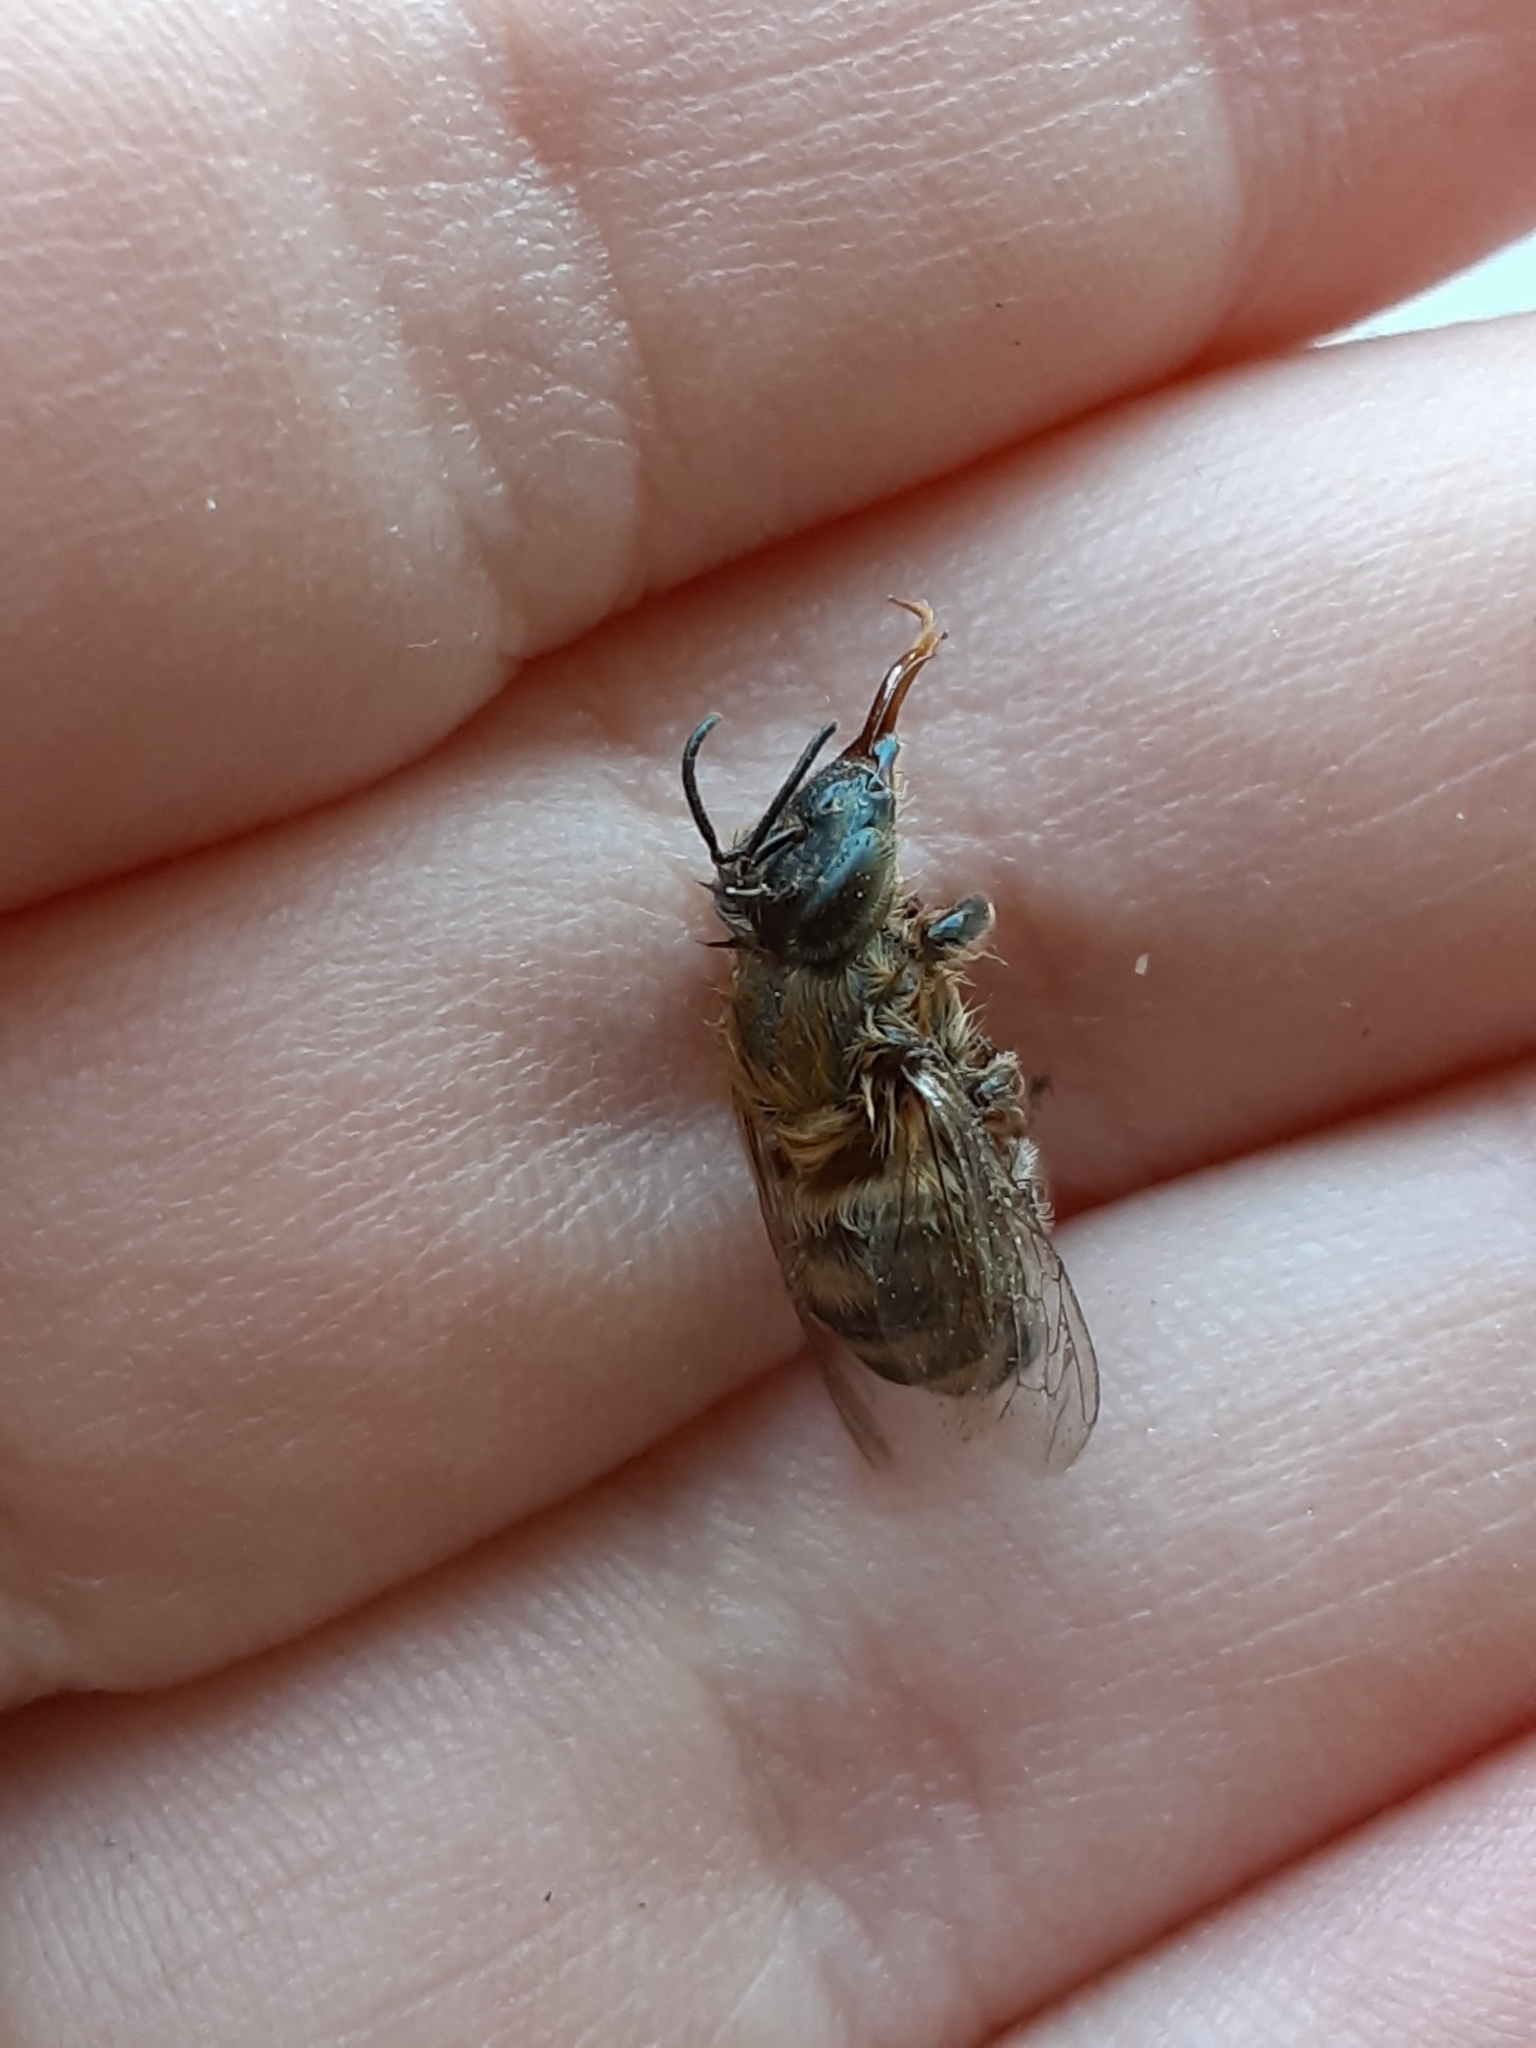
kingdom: Animalia
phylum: Arthropoda
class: Insecta
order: Hymenoptera
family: Apidae
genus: Apis
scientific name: Apis mellifera
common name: Honey bee
